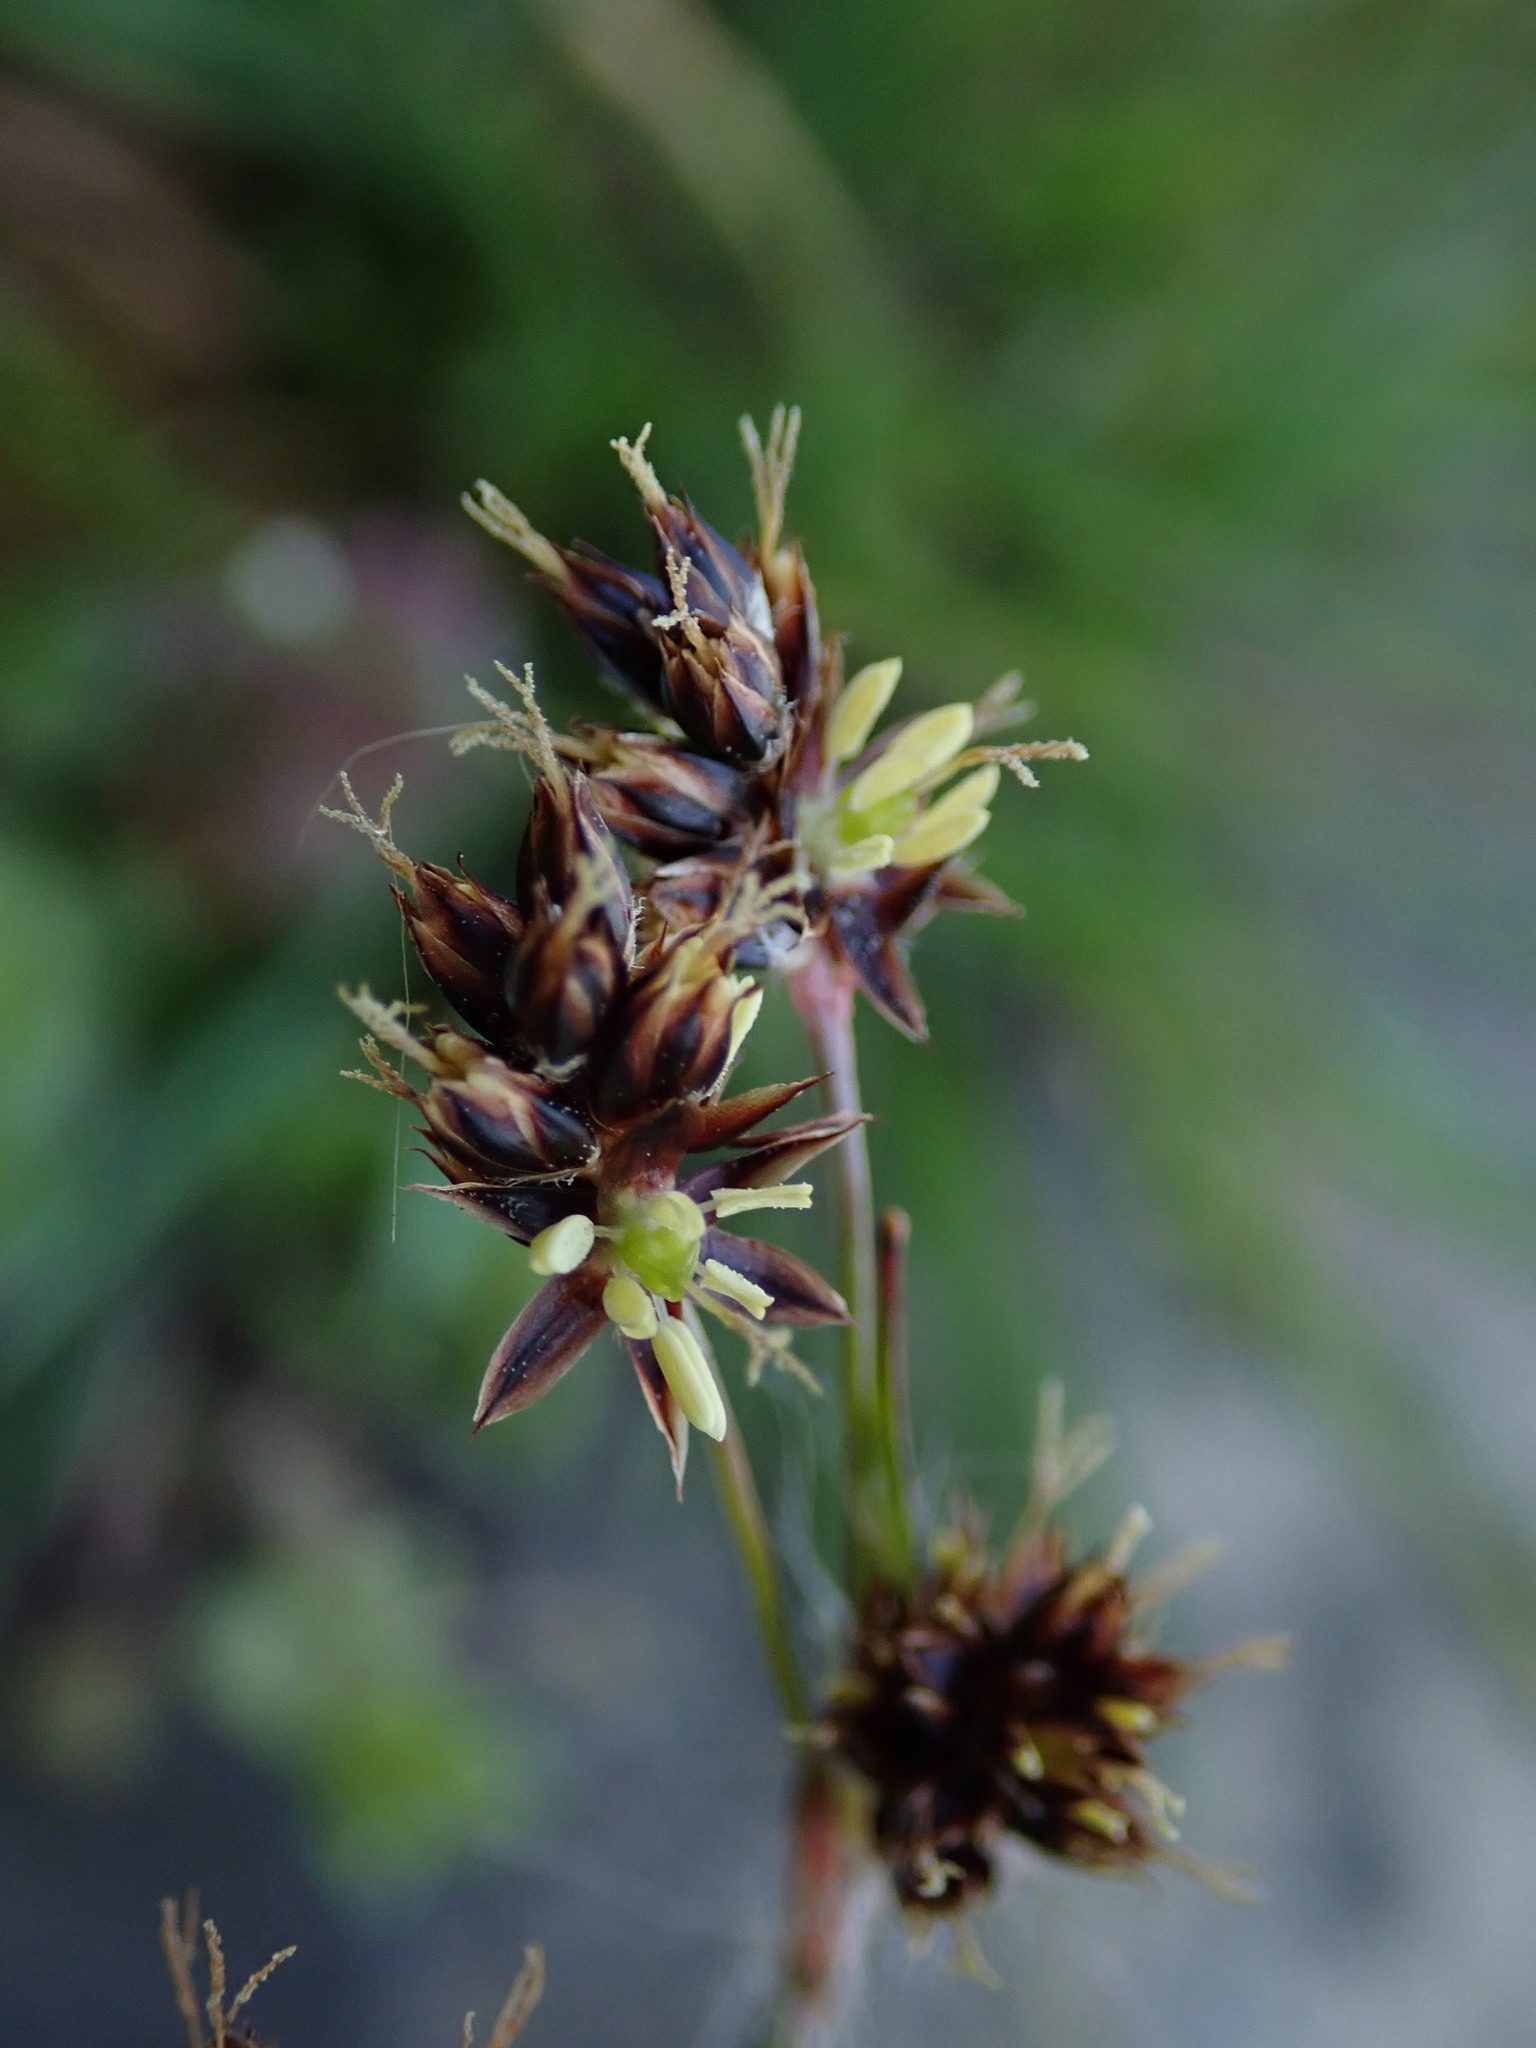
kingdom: Plantae
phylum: Tracheophyta
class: Liliopsida
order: Poales
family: Juncaceae
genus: Luzula
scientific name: Luzula campestris
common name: Field wood-rush
